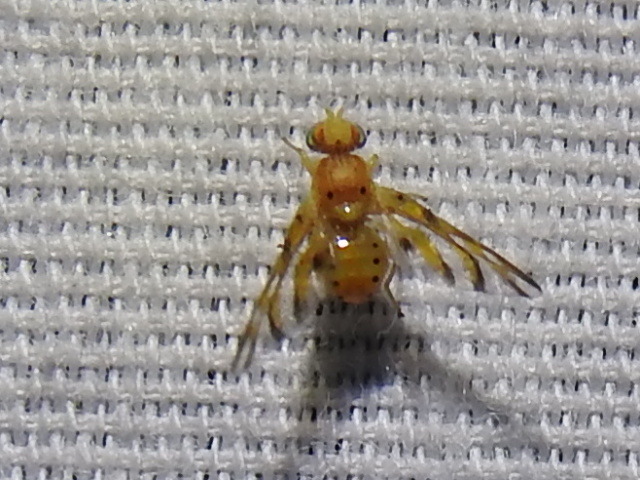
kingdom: Animalia
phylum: Arthropoda
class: Insecta
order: Diptera
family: Tephritidae
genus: Tomoplagia
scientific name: Tomoplagia obliqua
